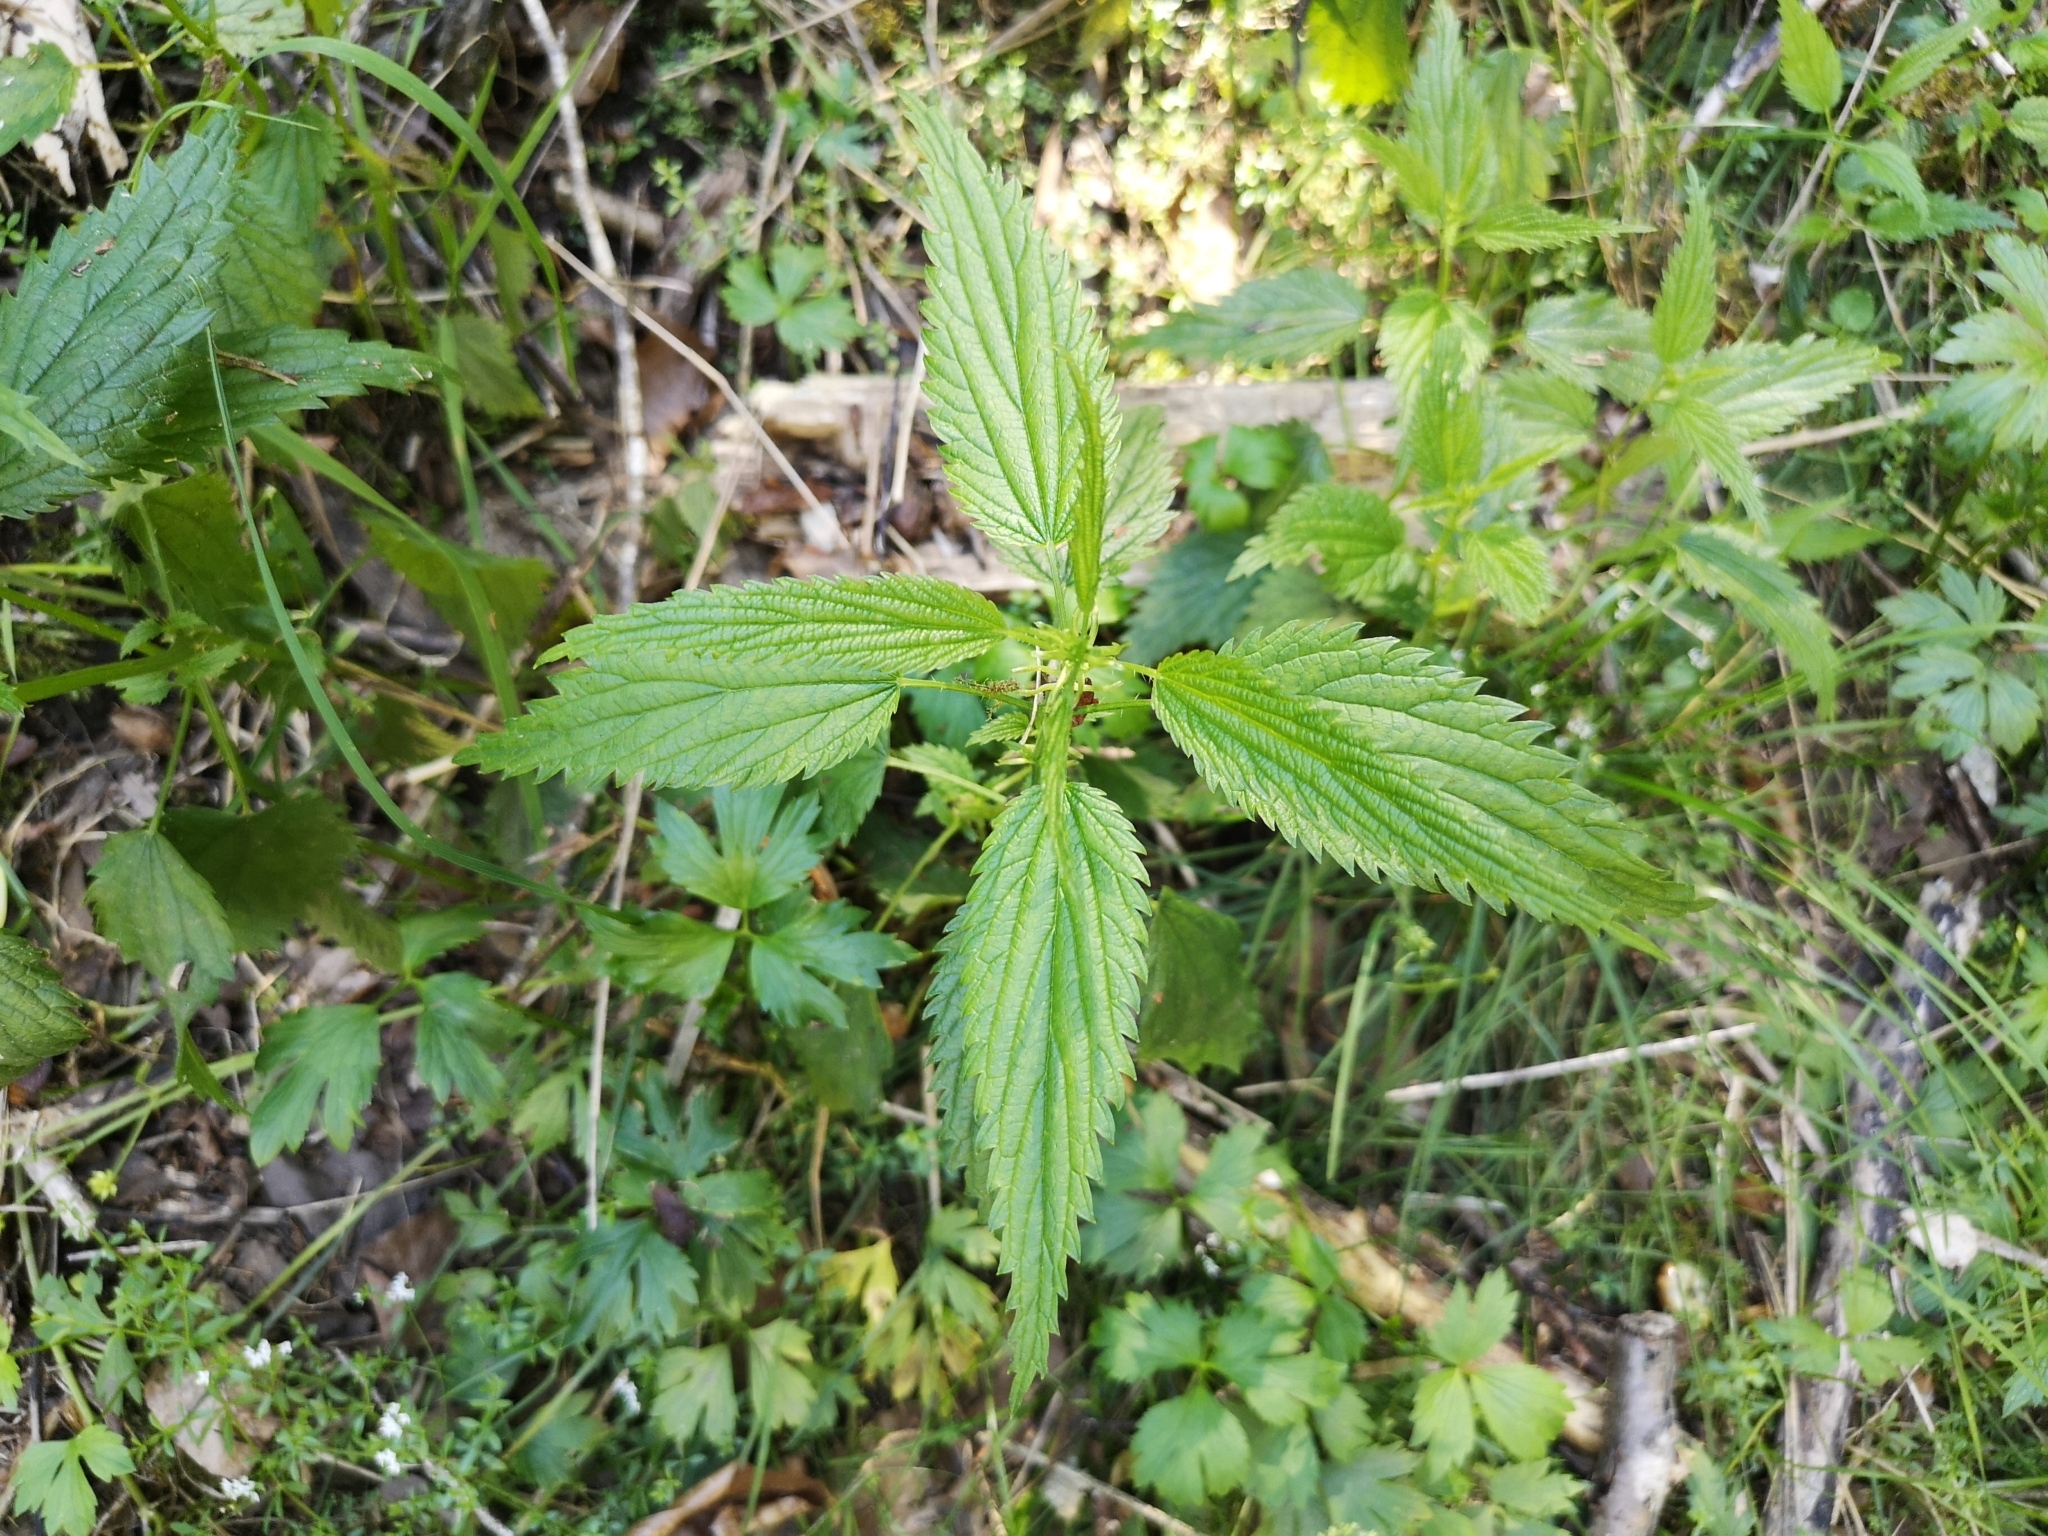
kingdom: Plantae
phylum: Tracheophyta
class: Magnoliopsida
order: Rosales
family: Urticaceae
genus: Urtica
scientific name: Urtica dioica
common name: Common nettle
